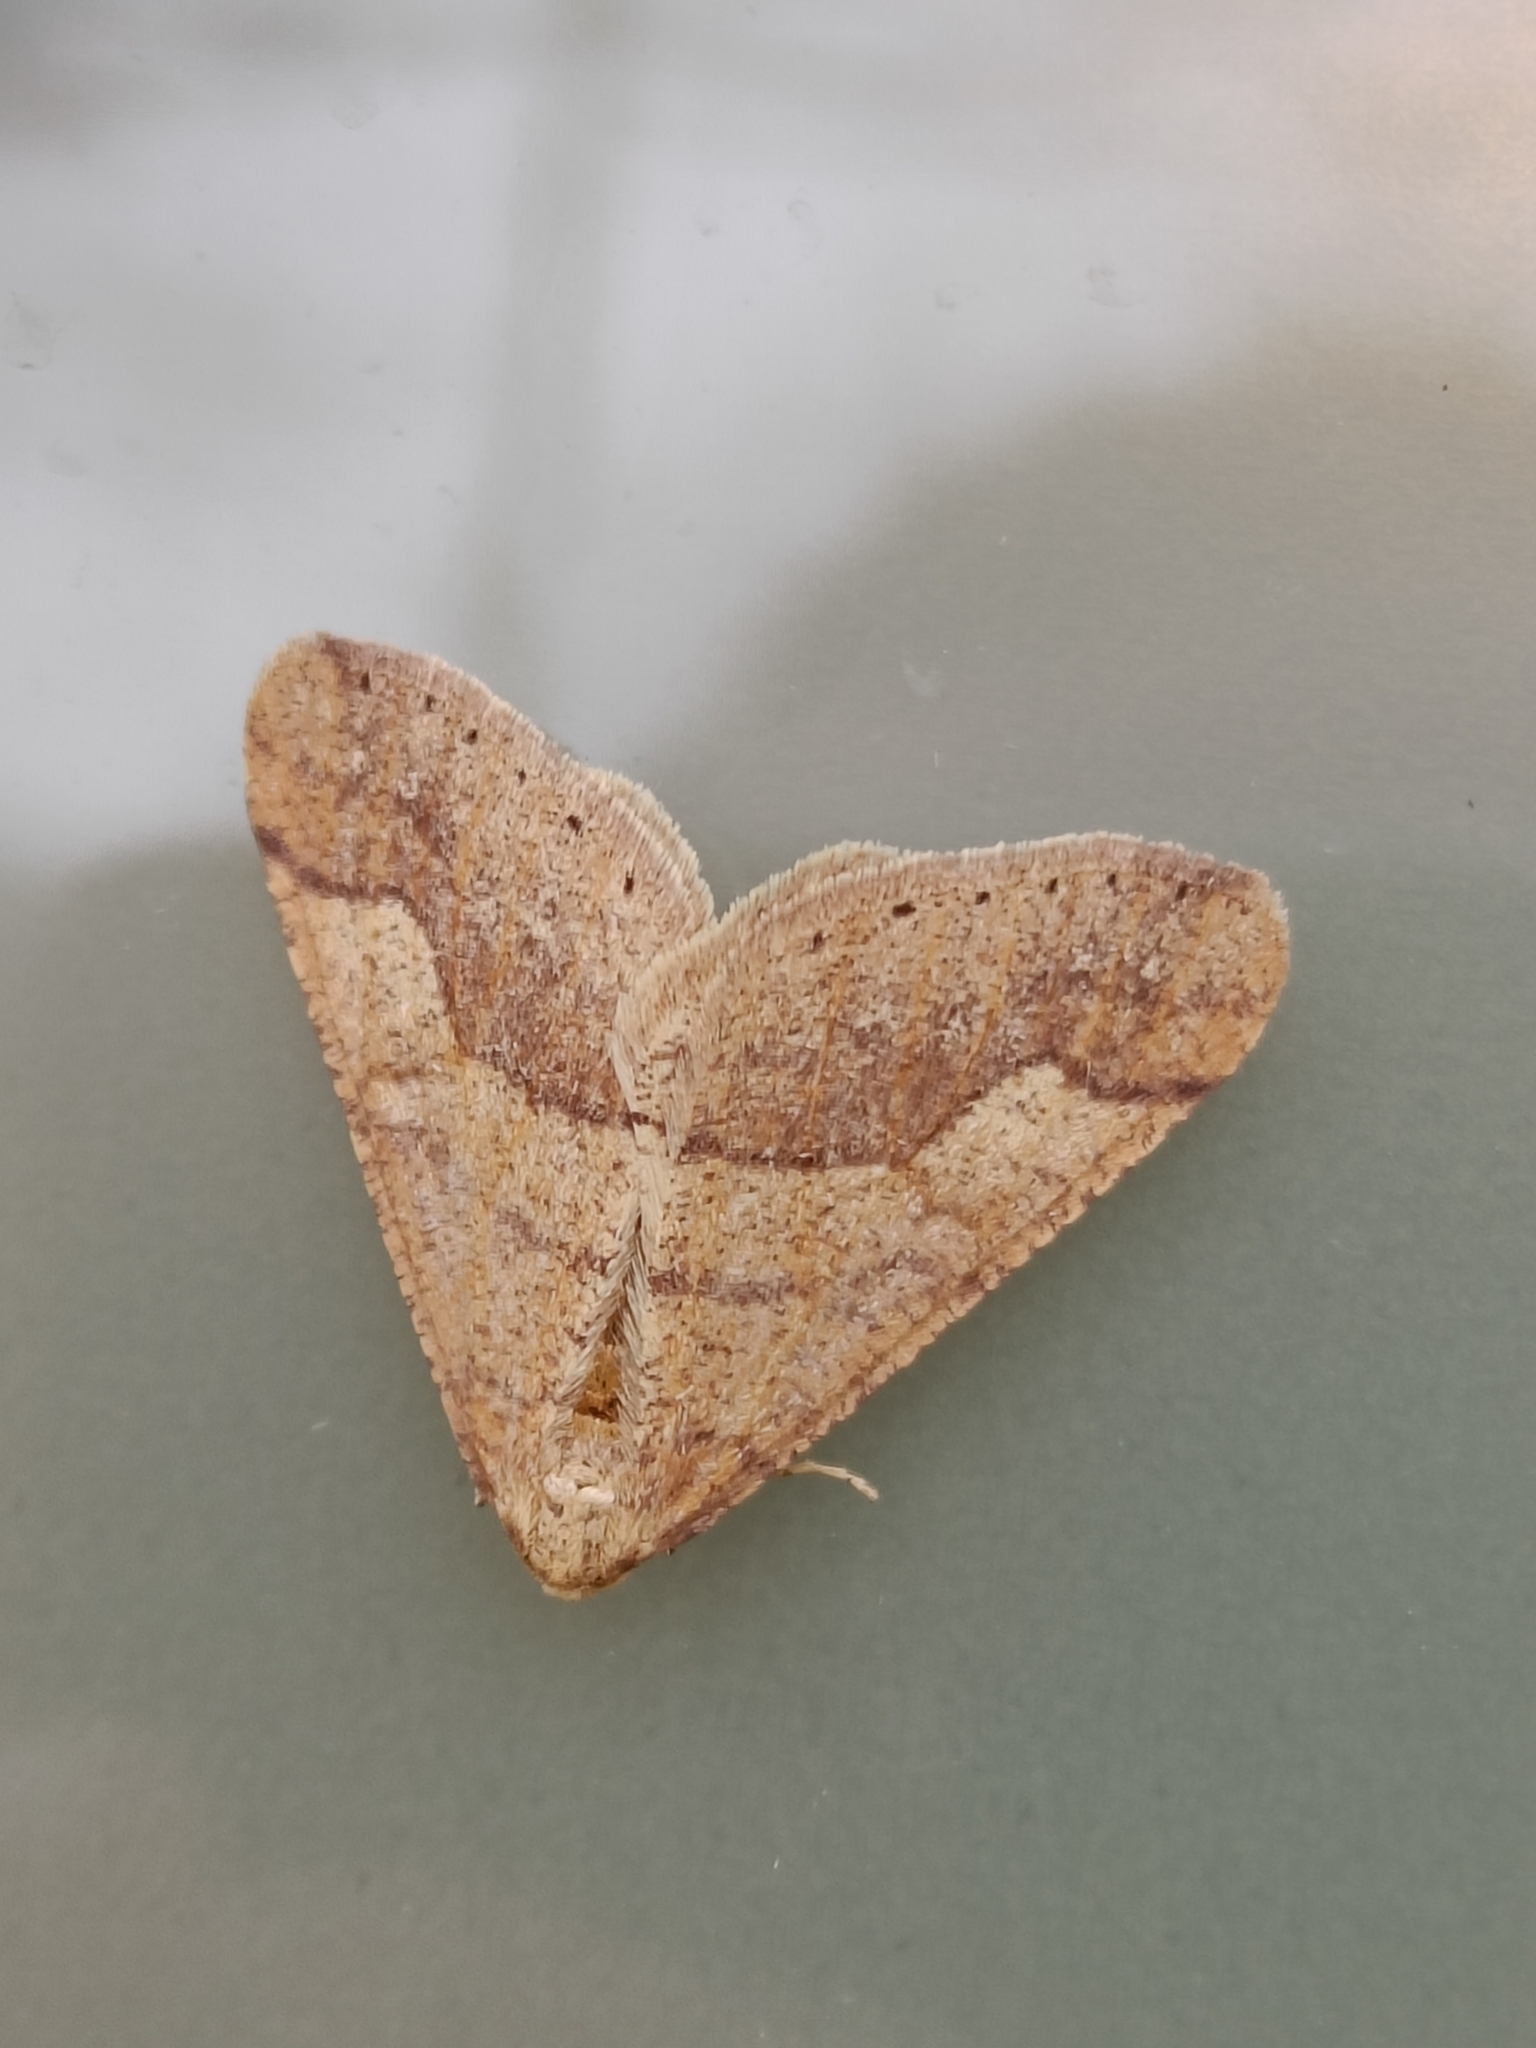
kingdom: Animalia
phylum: Arthropoda
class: Insecta
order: Lepidoptera
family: Geometridae
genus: Agriopis
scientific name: Agriopis marginaria
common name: Dotted border
